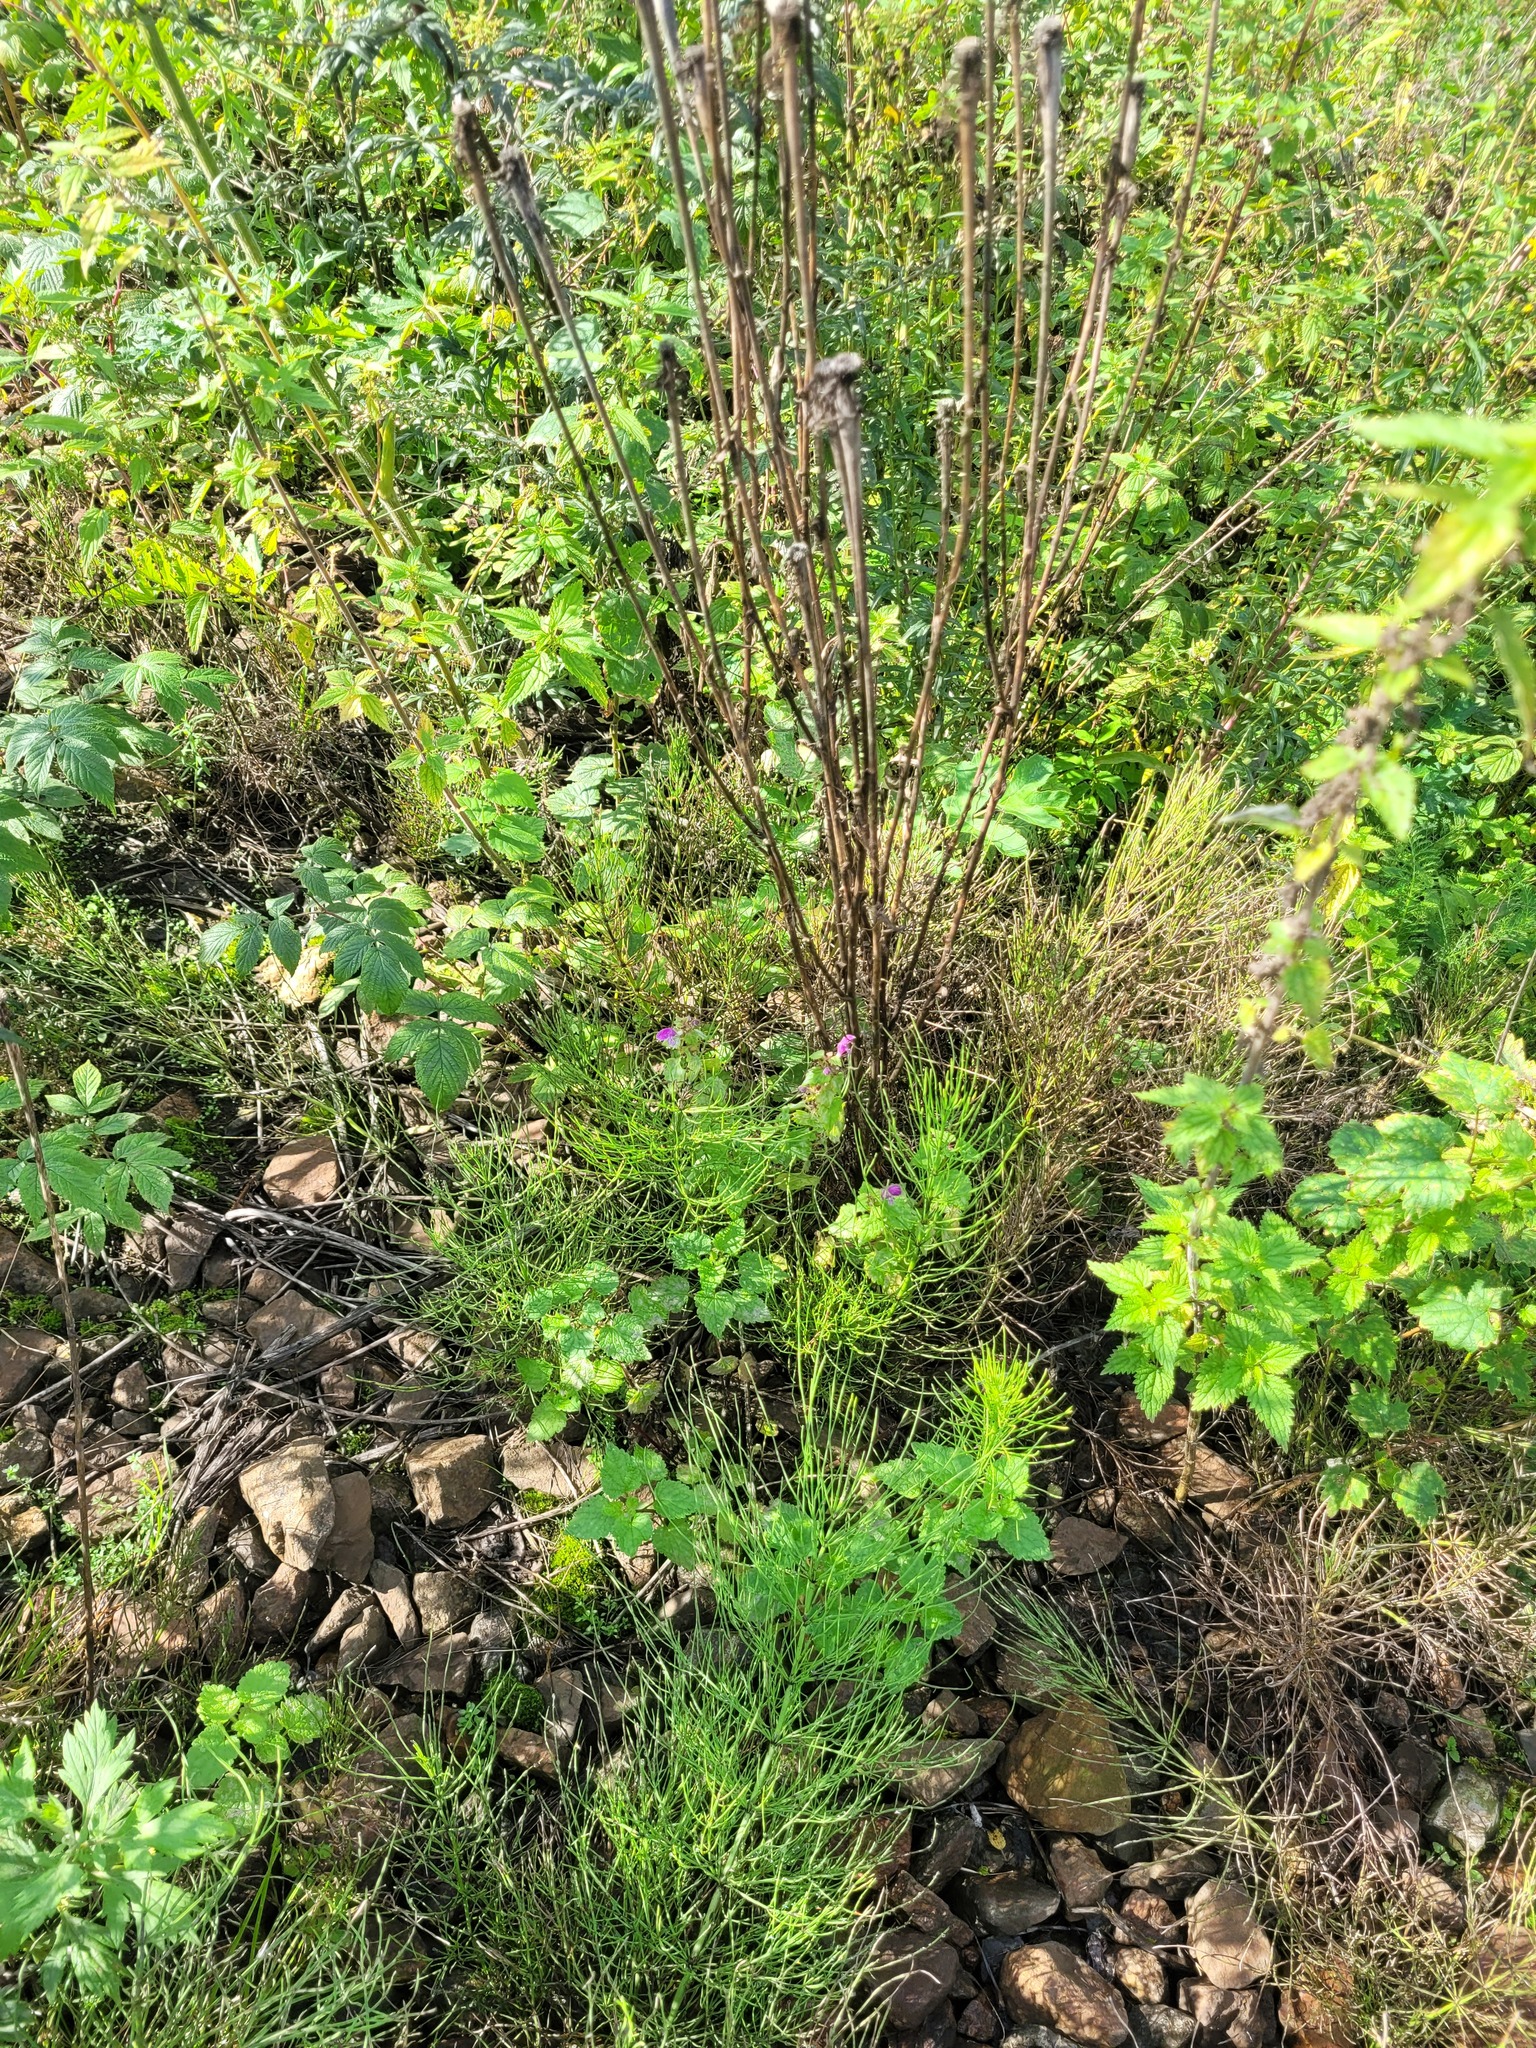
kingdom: Plantae
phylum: Tracheophyta
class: Magnoliopsida
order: Lamiales
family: Lamiaceae
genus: Lamium
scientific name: Lamium maculatum
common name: Spotted dead-nettle
